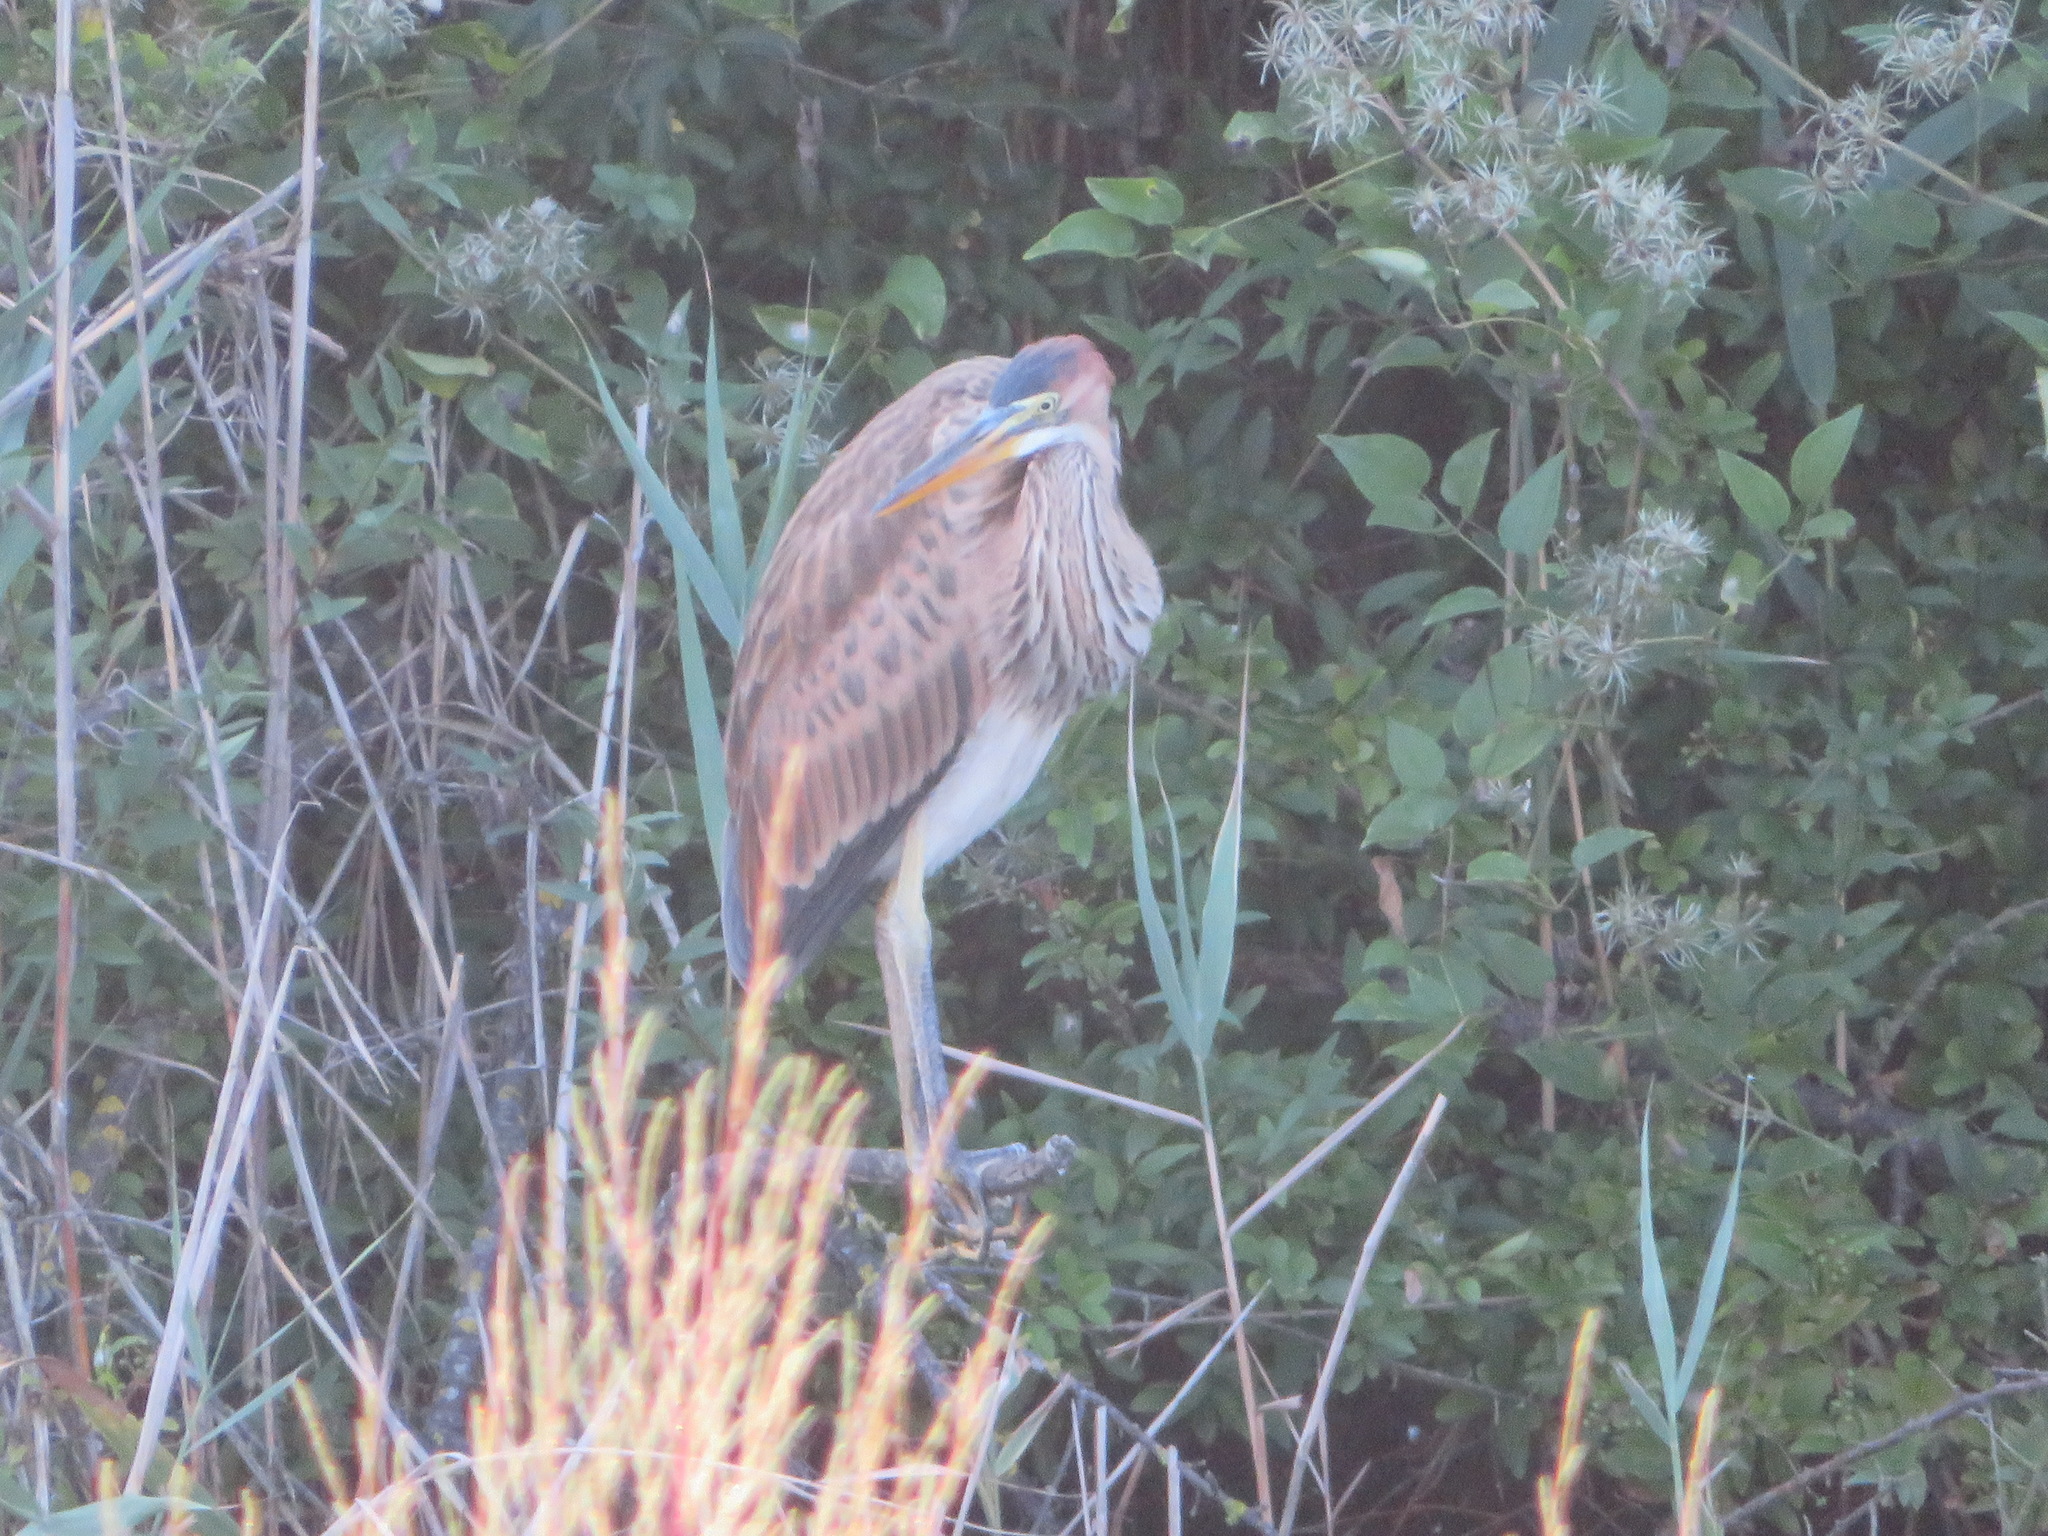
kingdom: Animalia
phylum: Chordata
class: Aves
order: Pelecaniformes
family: Ardeidae
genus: Ardea
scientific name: Ardea purpurea
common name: Purple heron
